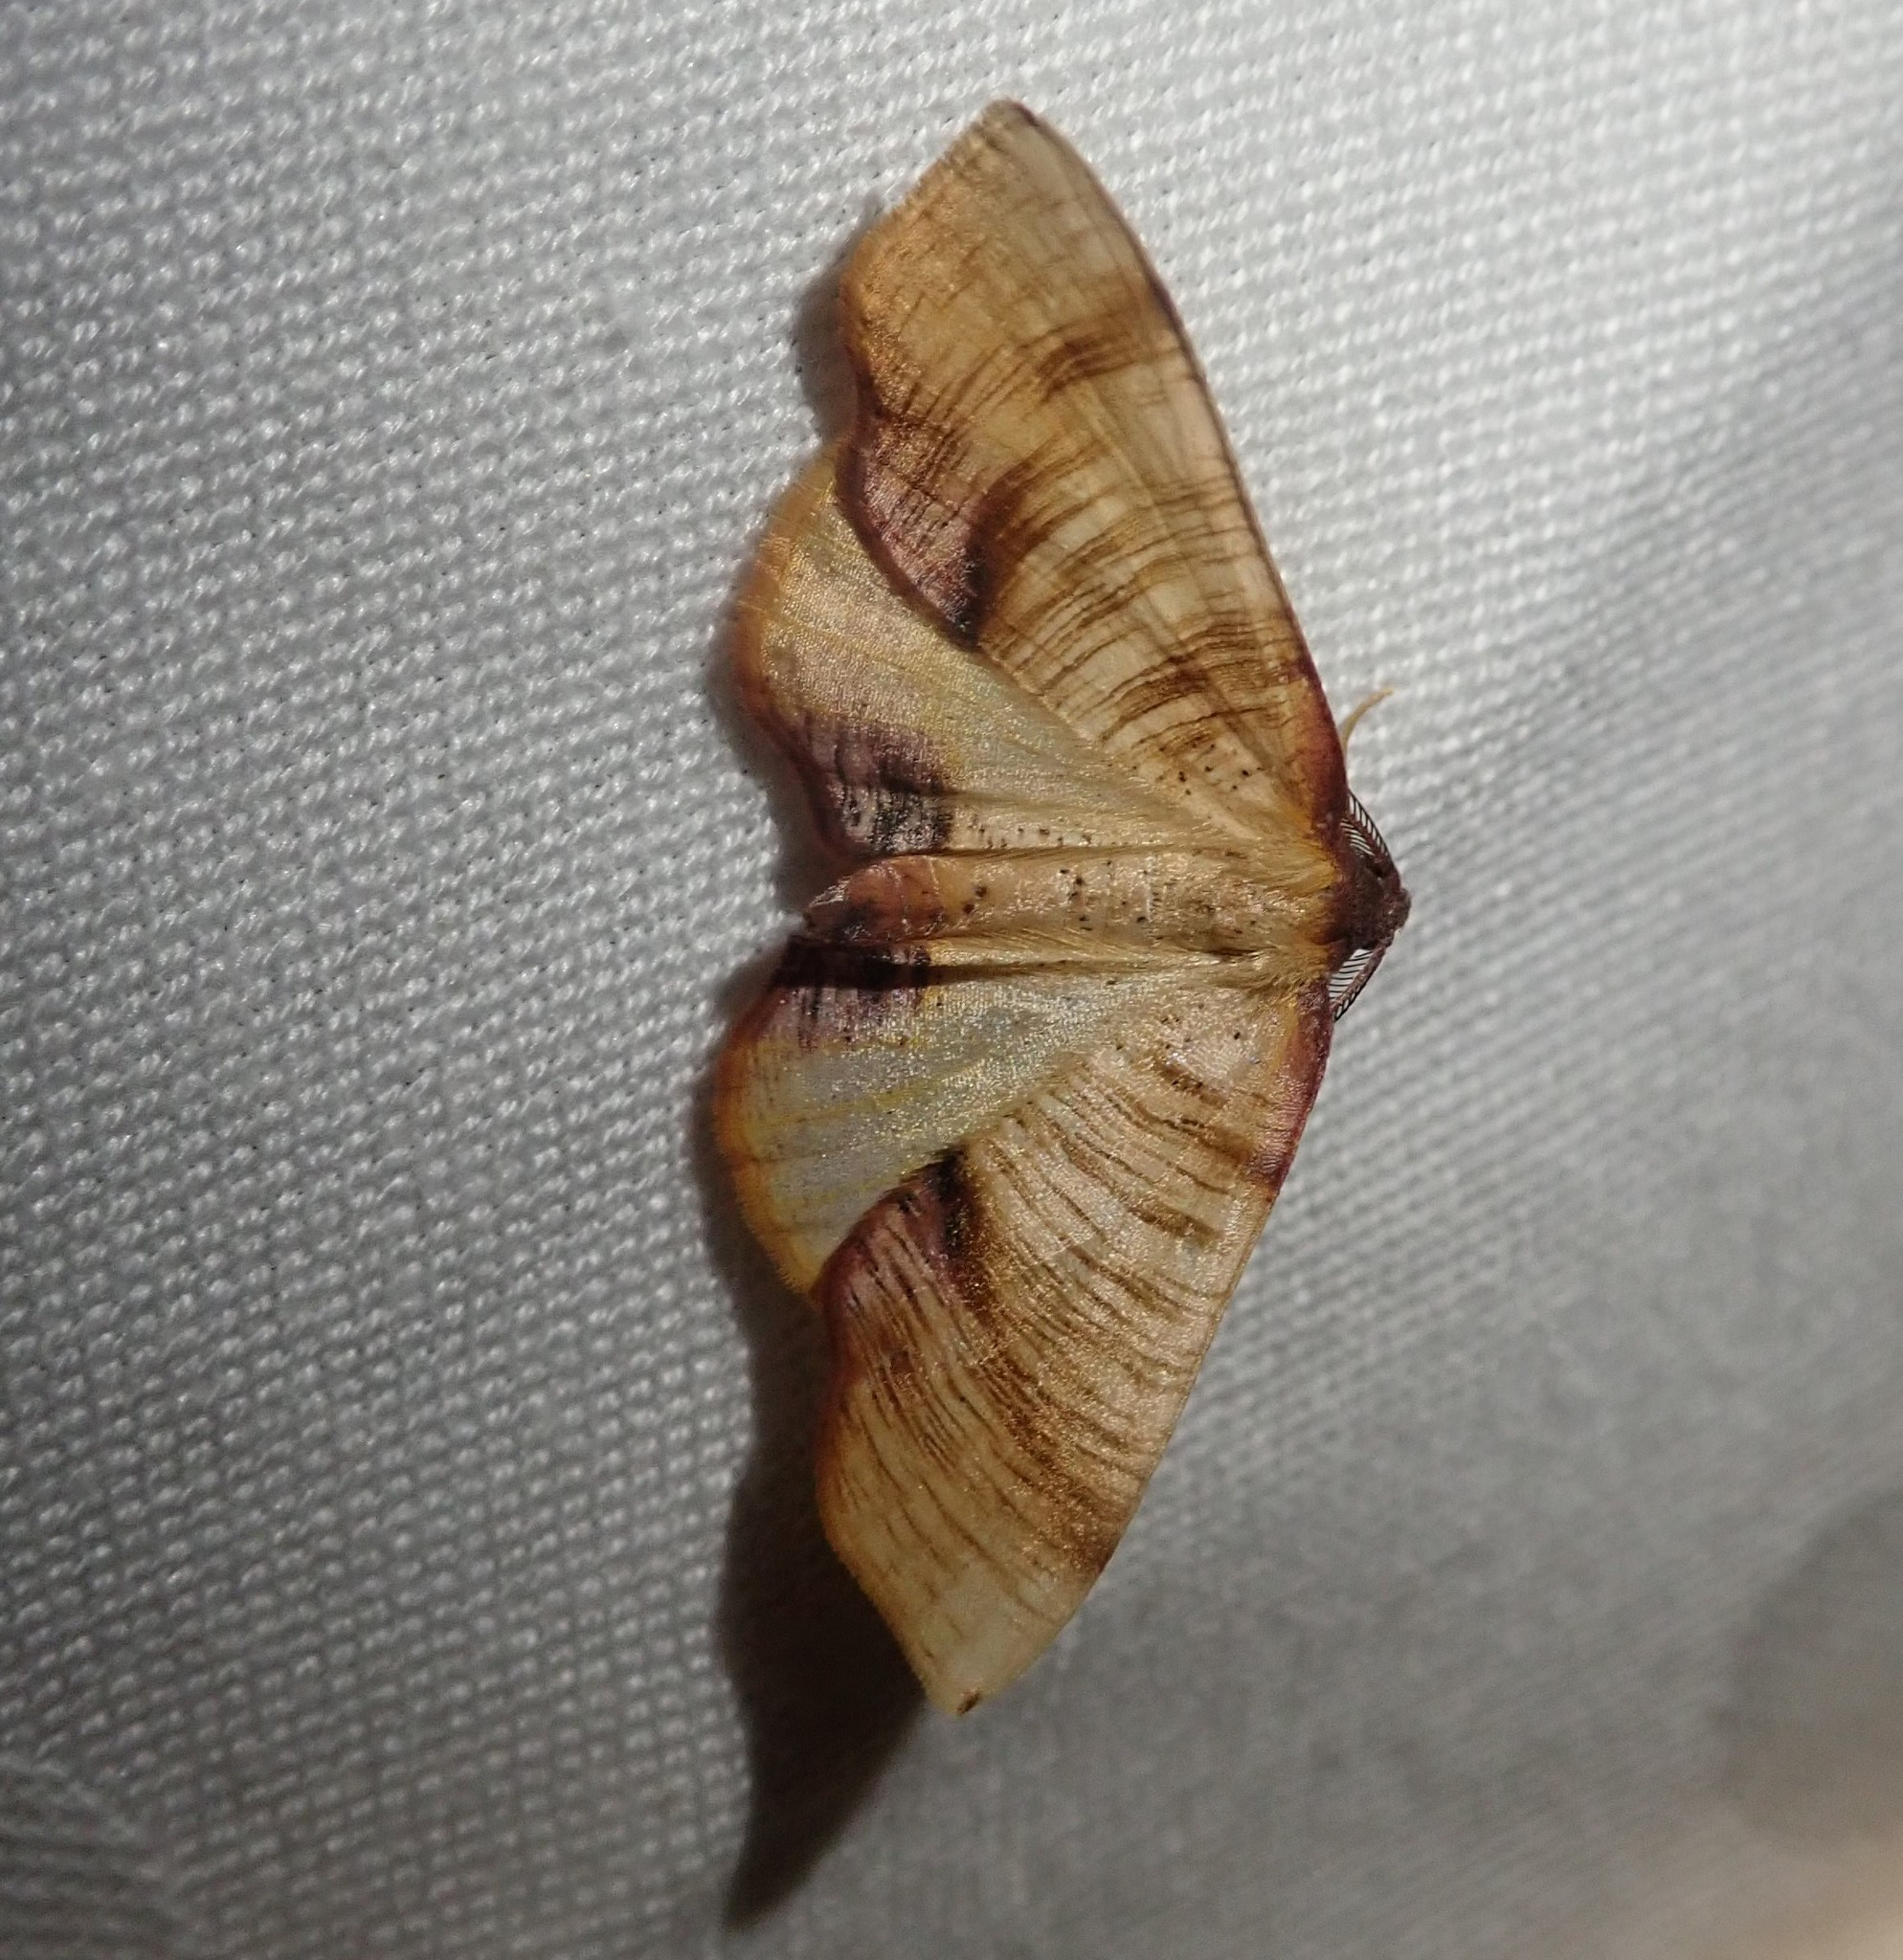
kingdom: Animalia
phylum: Arthropoda
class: Insecta
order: Lepidoptera
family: Geometridae
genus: Plagodis
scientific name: Plagodis dolabraria
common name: Scorched wing
